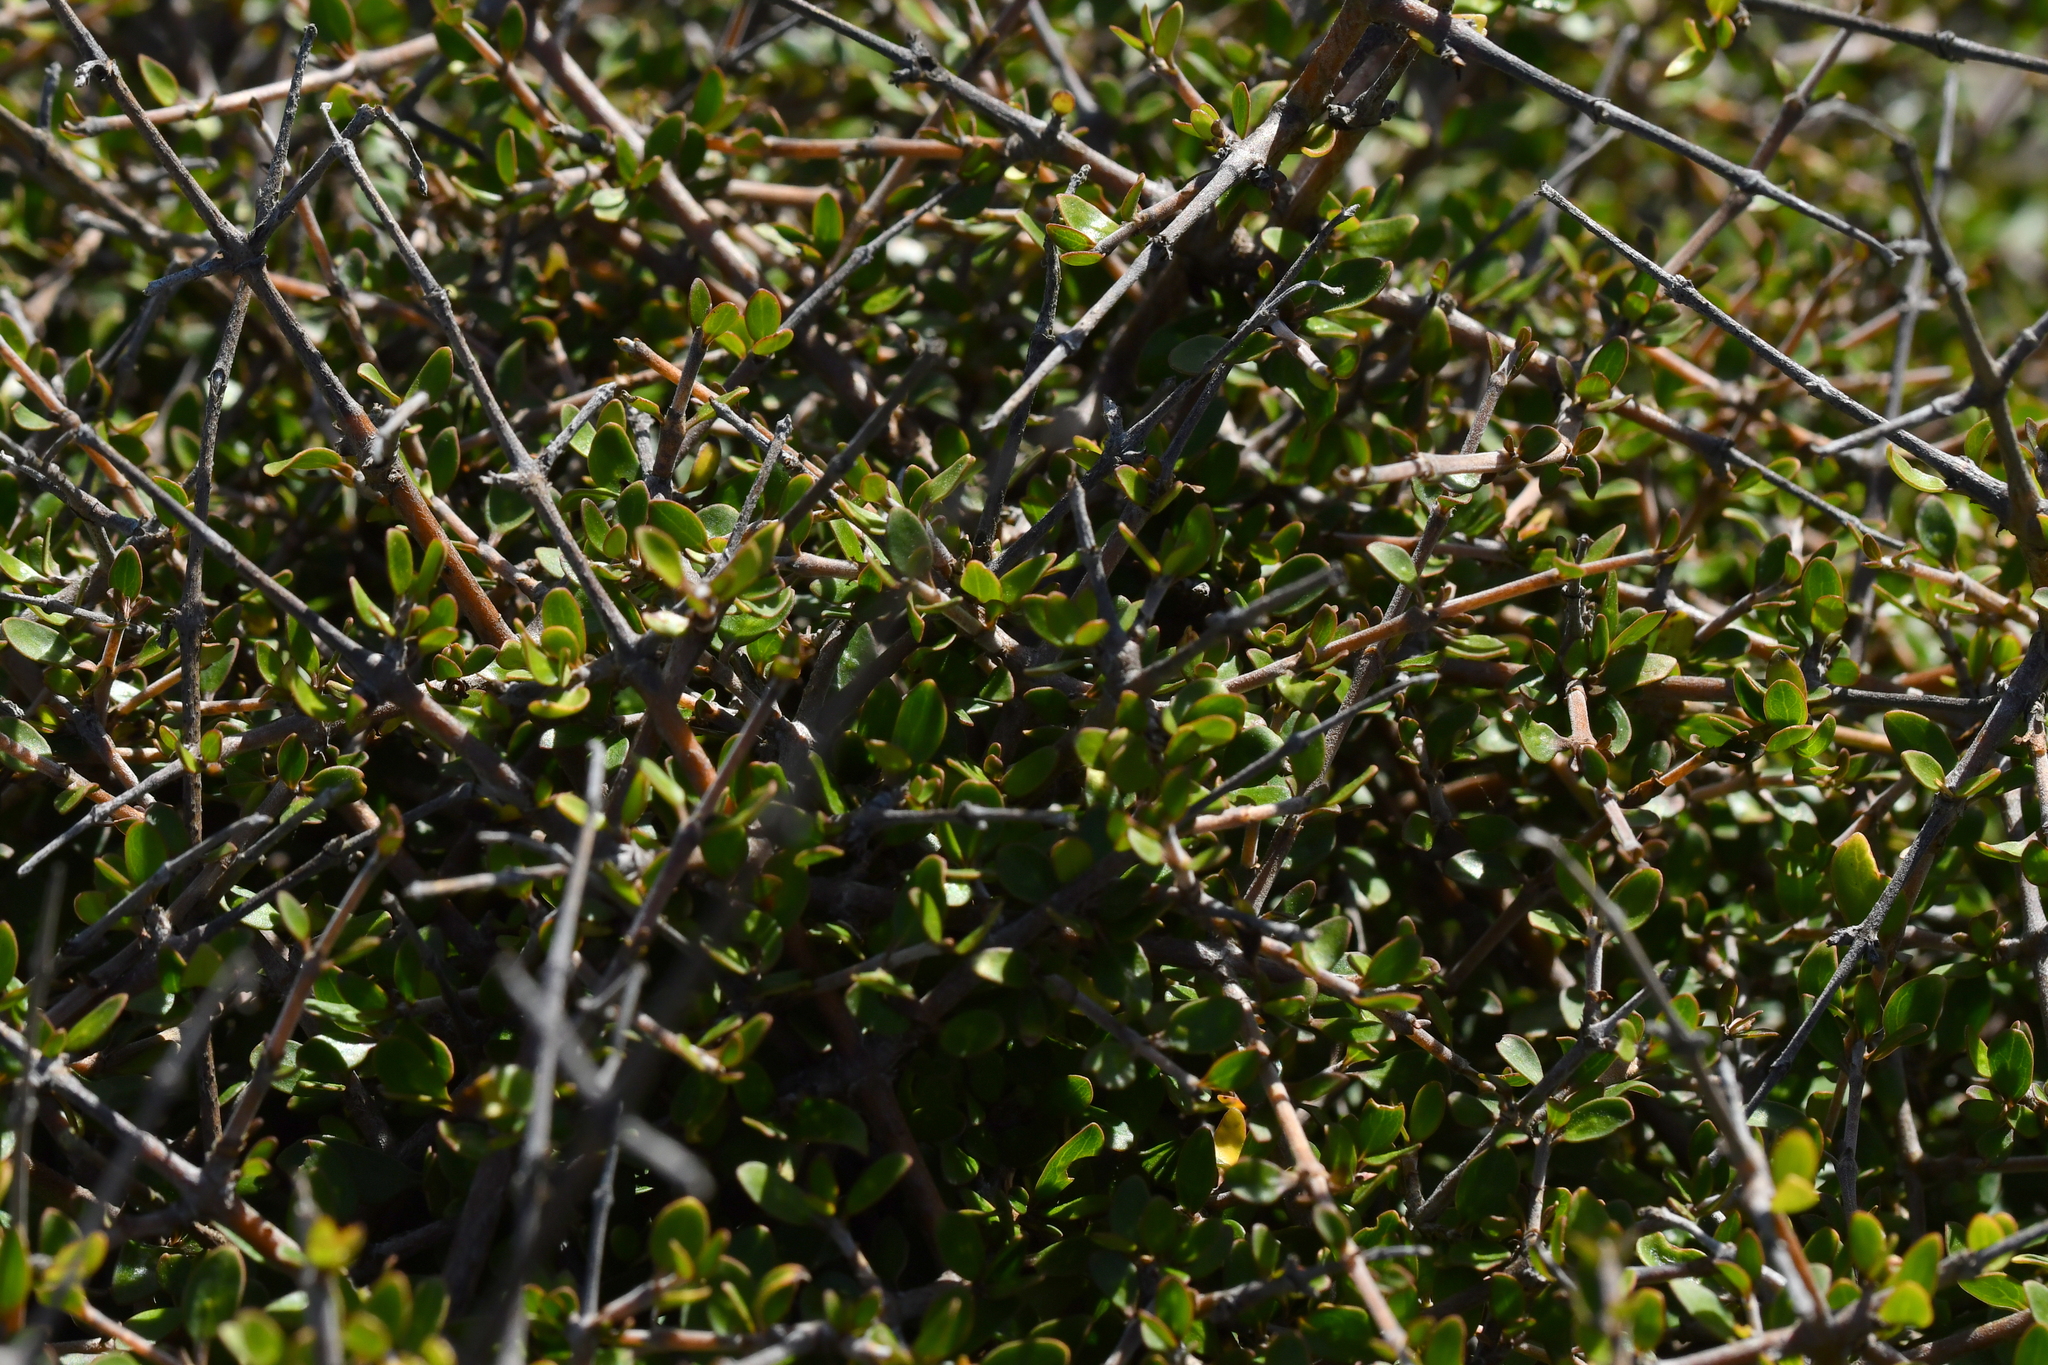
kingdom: Plantae
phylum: Tracheophyta
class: Magnoliopsida
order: Gentianales
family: Rubiaceae
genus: Coprosma
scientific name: Coprosma propinqua
